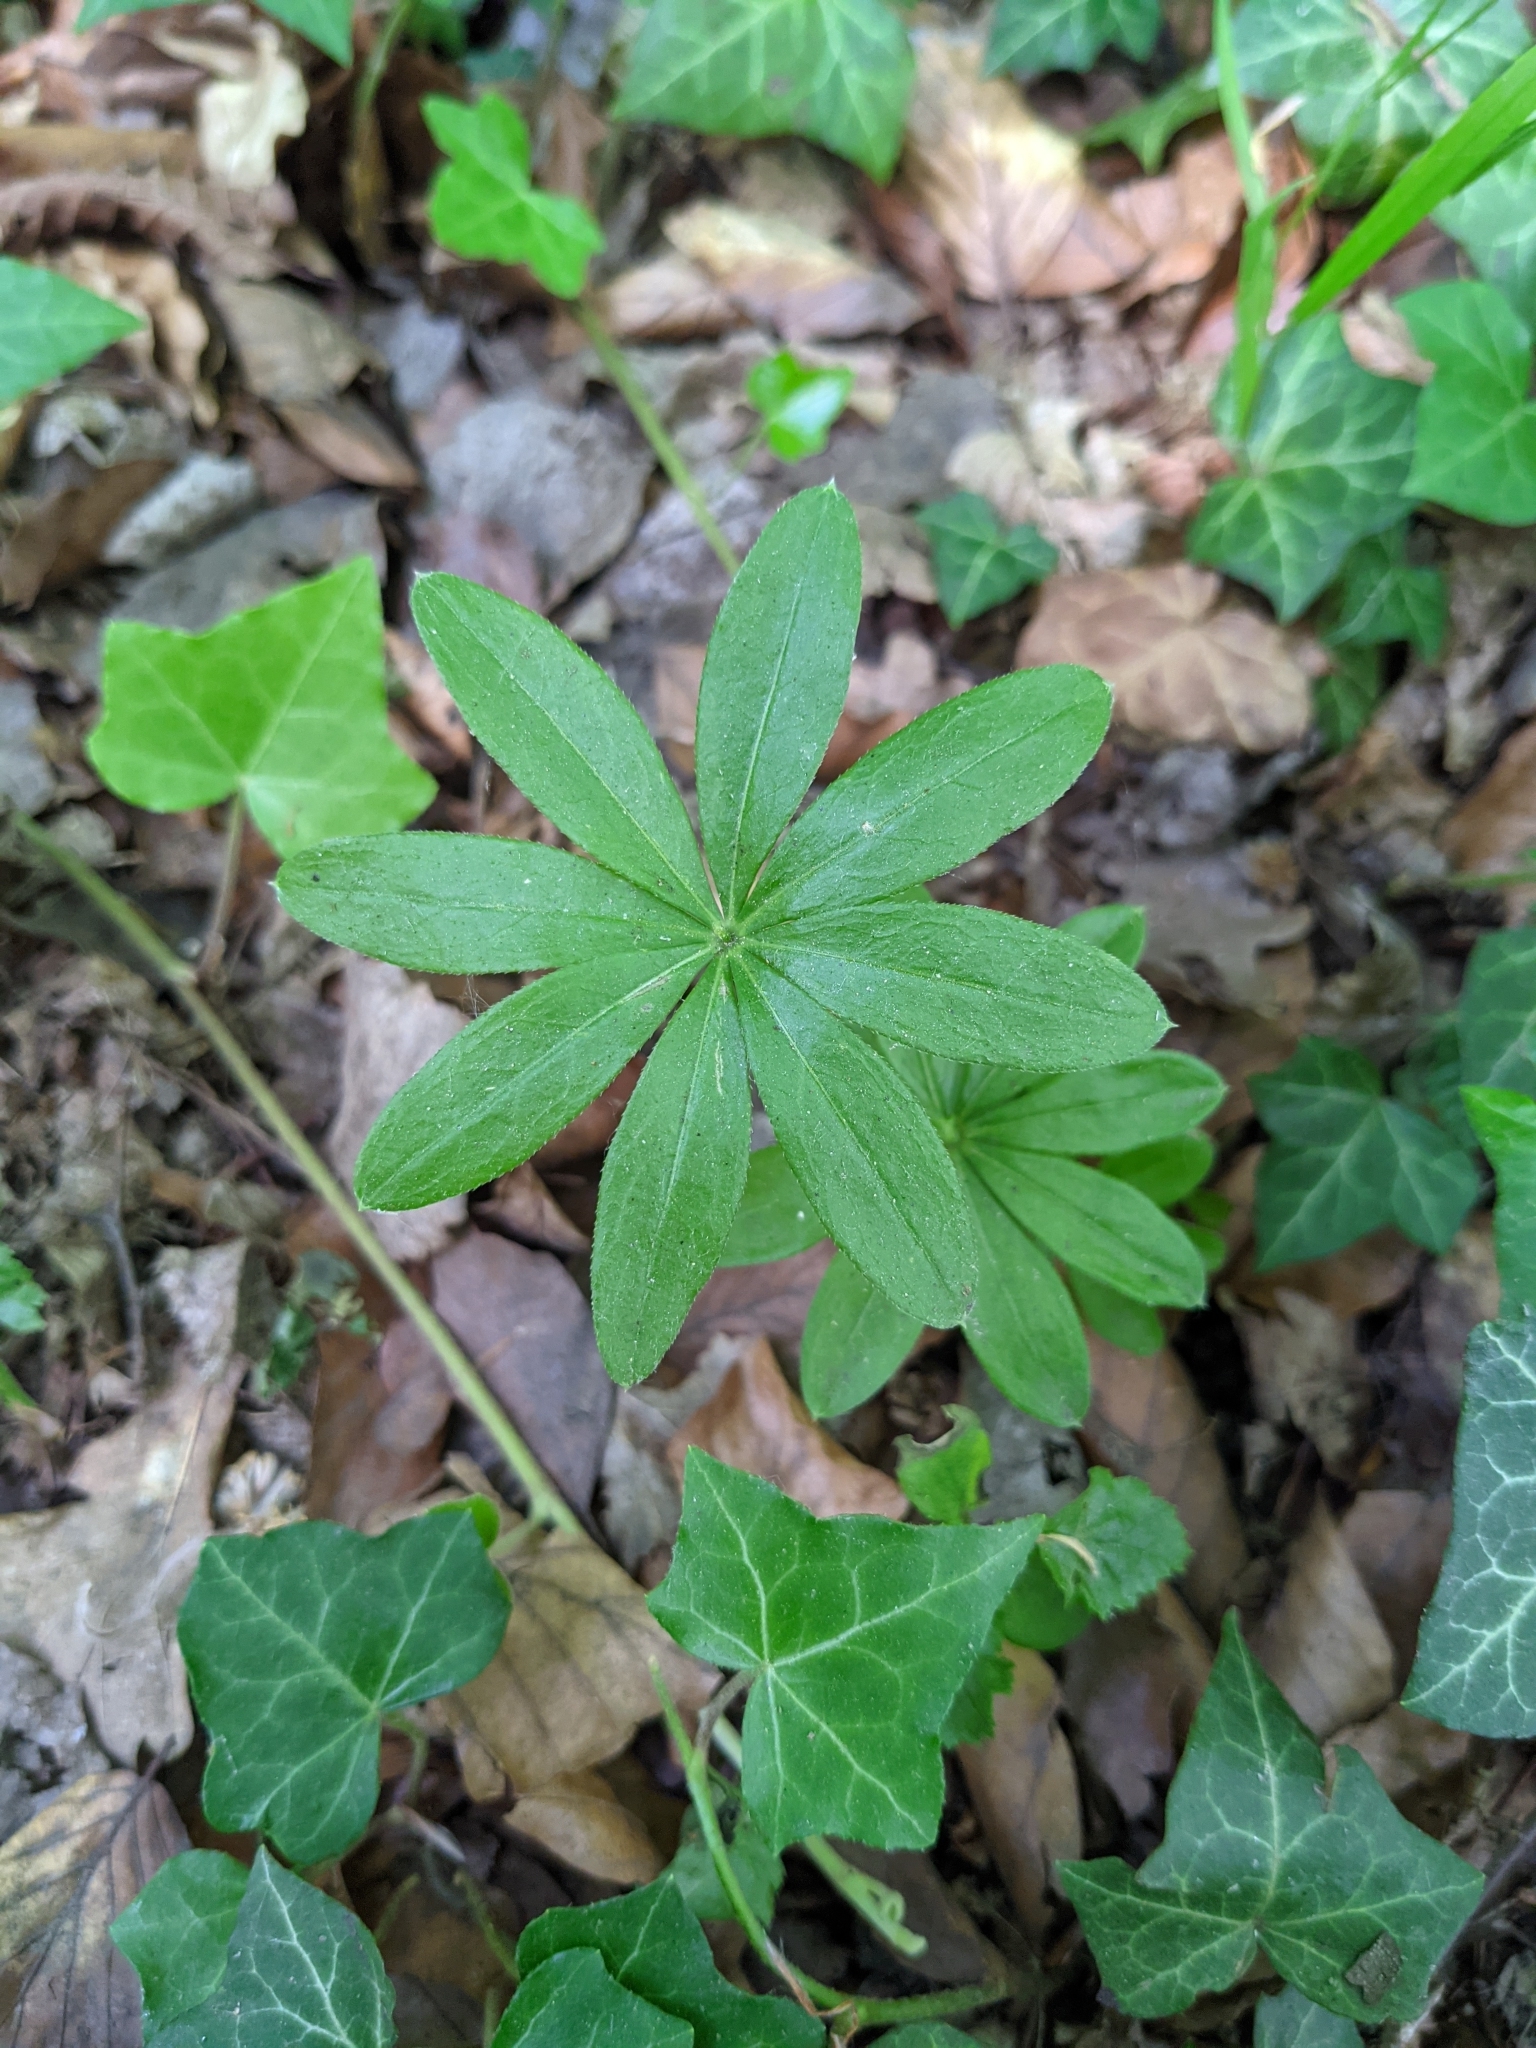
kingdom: Plantae
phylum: Tracheophyta
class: Magnoliopsida
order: Gentianales
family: Rubiaceae
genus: Galium
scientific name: Galium odoratum
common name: Sweet woodruff
